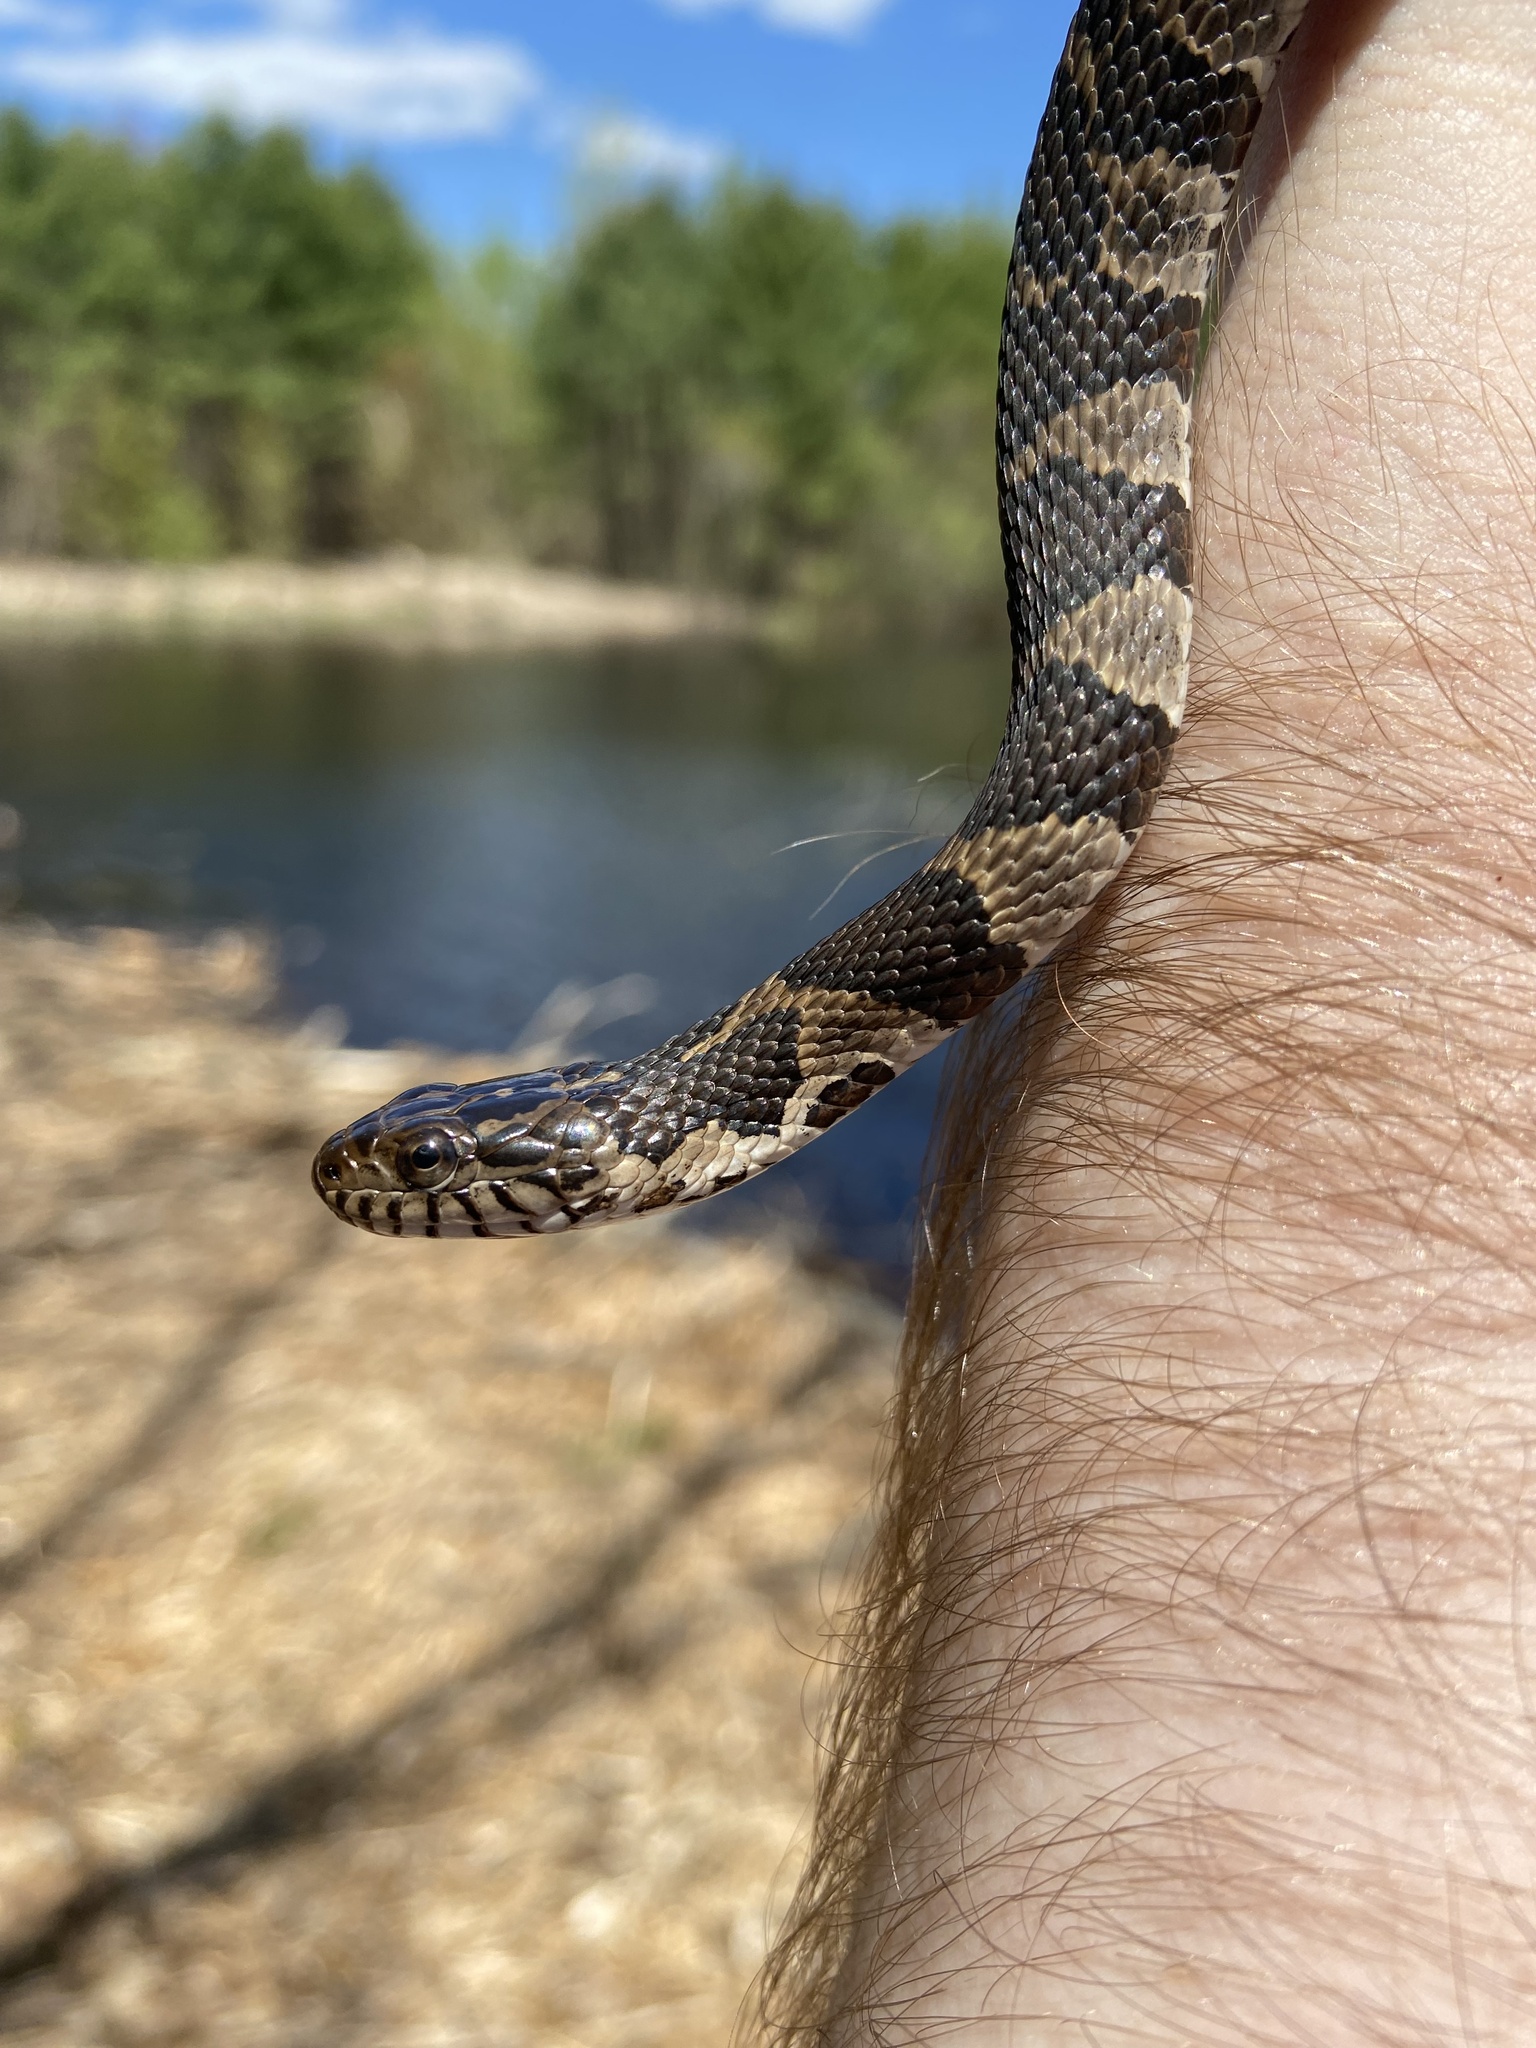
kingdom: Animalia
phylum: Chordata
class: Squamata
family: Colubridae
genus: Nerodia
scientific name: Nerodia sipedon
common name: Northern water snake
